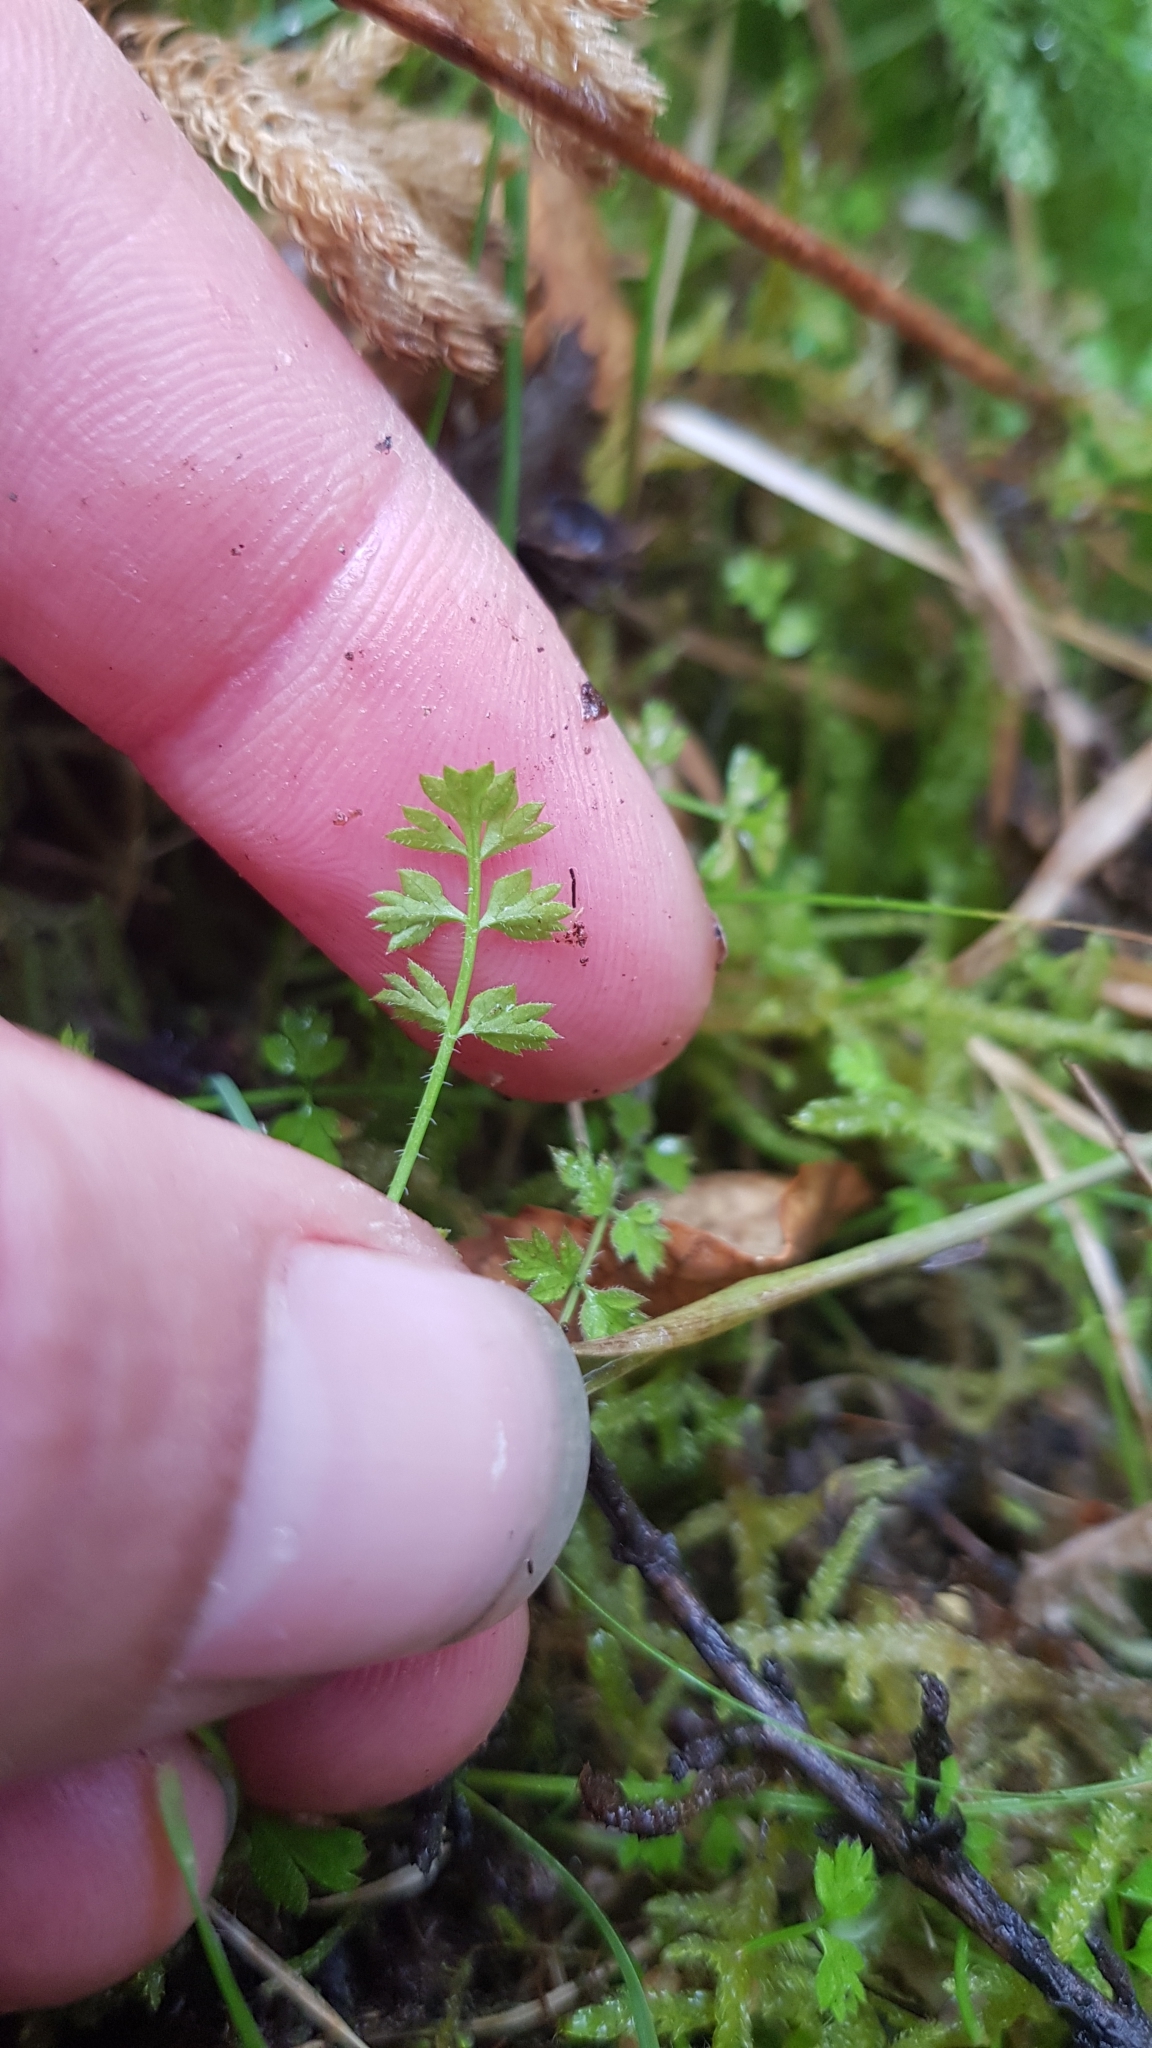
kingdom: Plantae
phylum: Tracheophyta
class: Magnoliopsida
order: Apiales
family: Apiaceae
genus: Chaerophyllum
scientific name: Chaerophyllum ramosum
